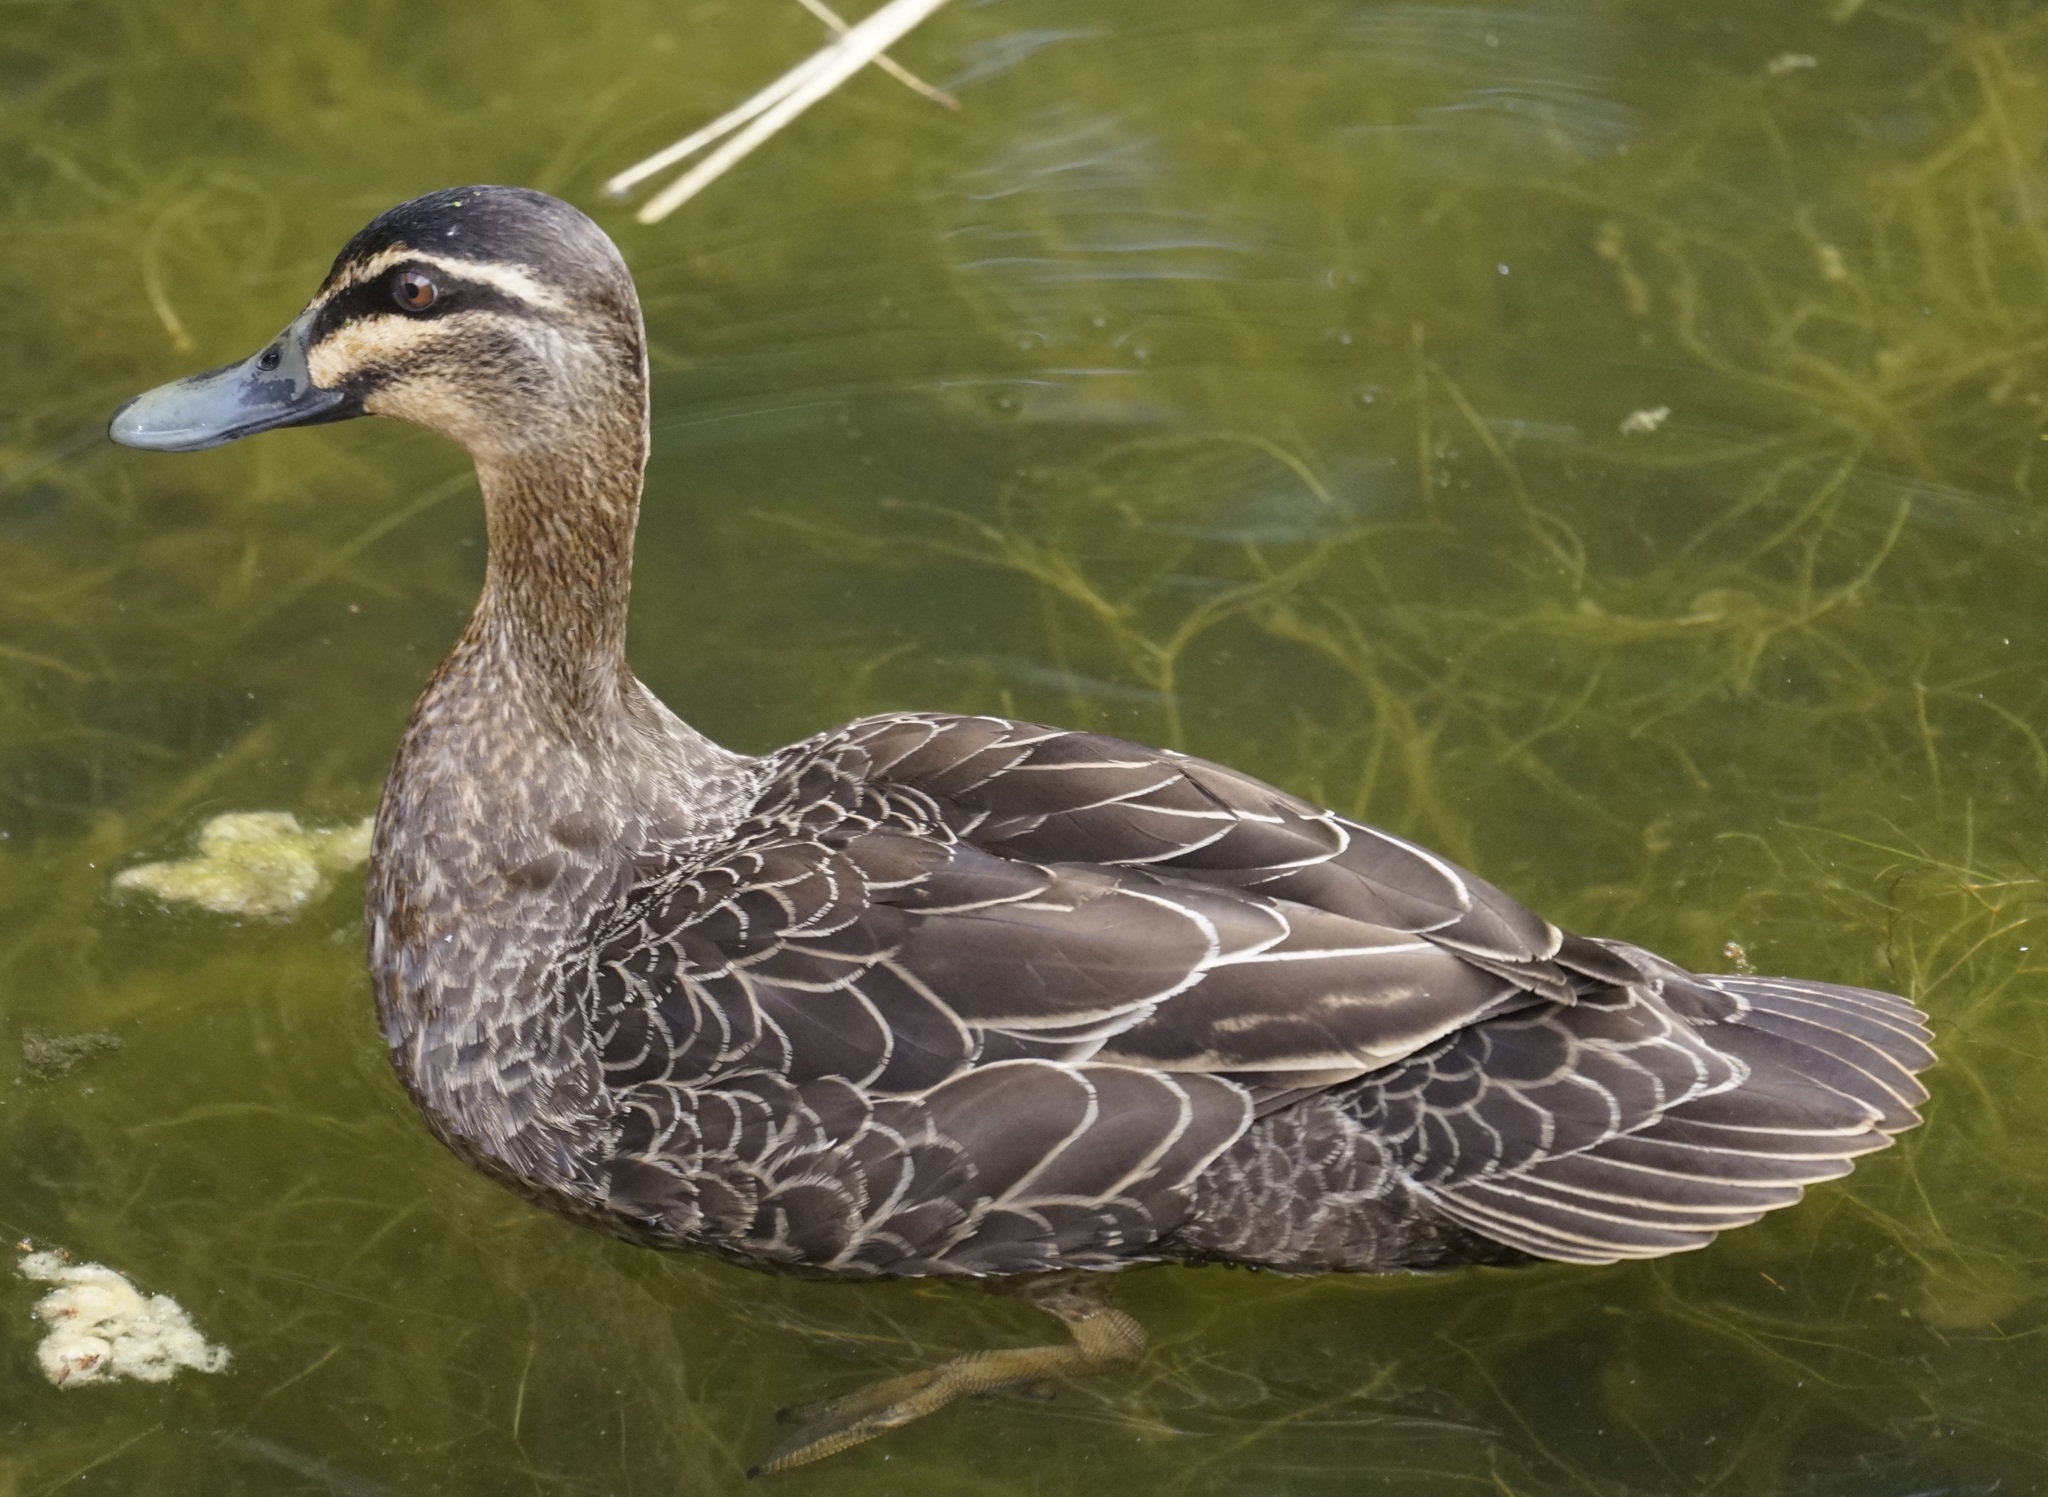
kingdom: Animalia
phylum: Chordata
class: Aves
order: Anseriformes
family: Anatidae
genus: Anas
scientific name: Anas superciliosa
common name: Pacific black duck
